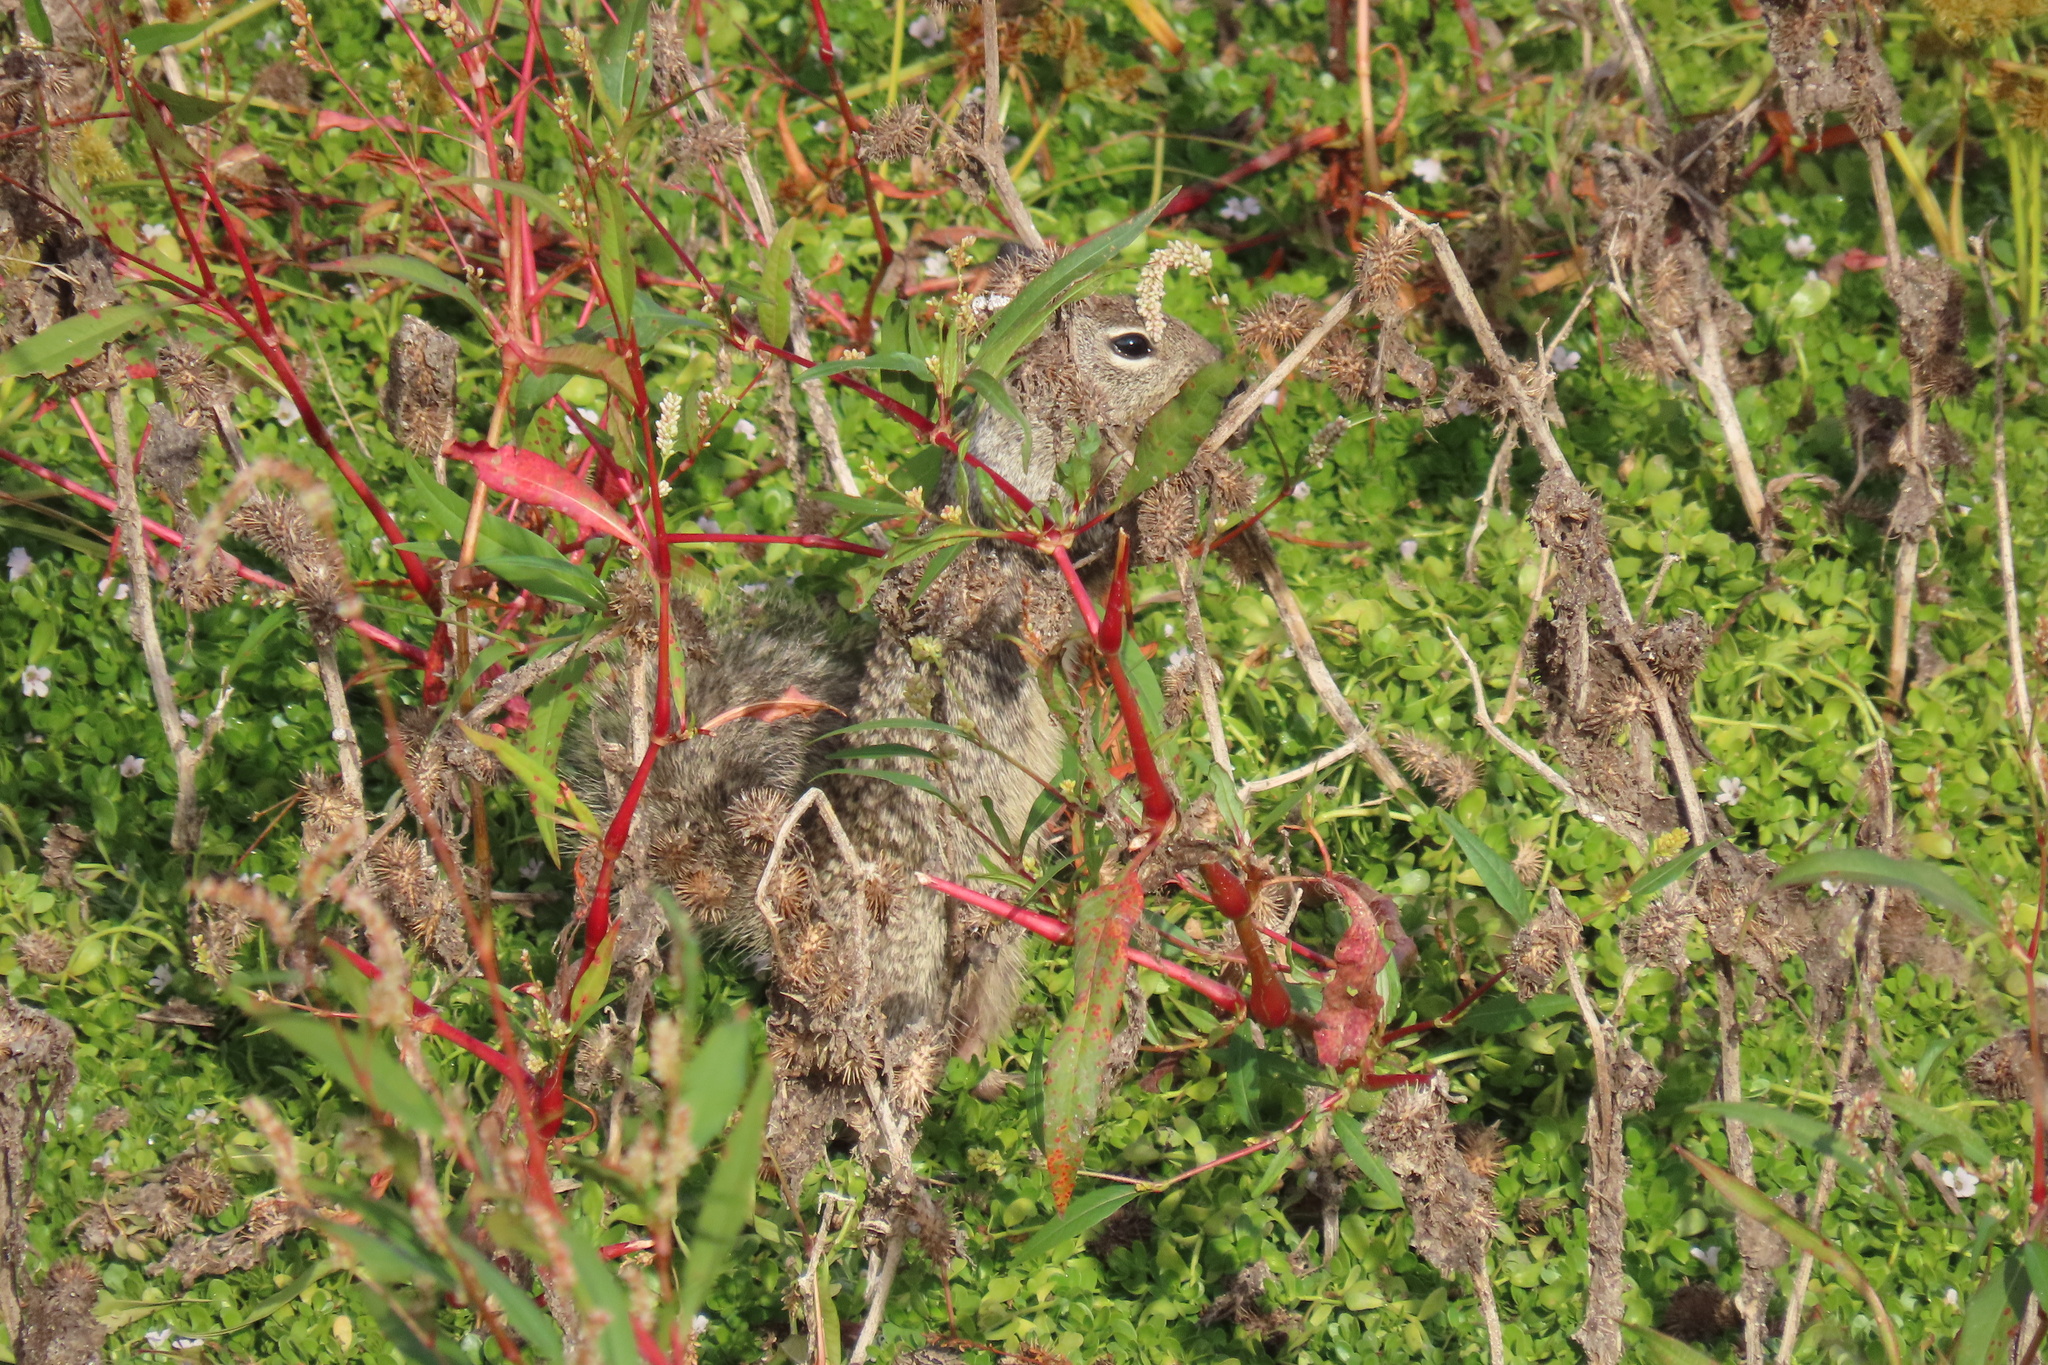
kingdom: Animalia
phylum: Chordata
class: Mammalia
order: Rodentia
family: Sciuridae
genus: Otospermophilus
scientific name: Otospermophilus beecheyi
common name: California ground squirrel
